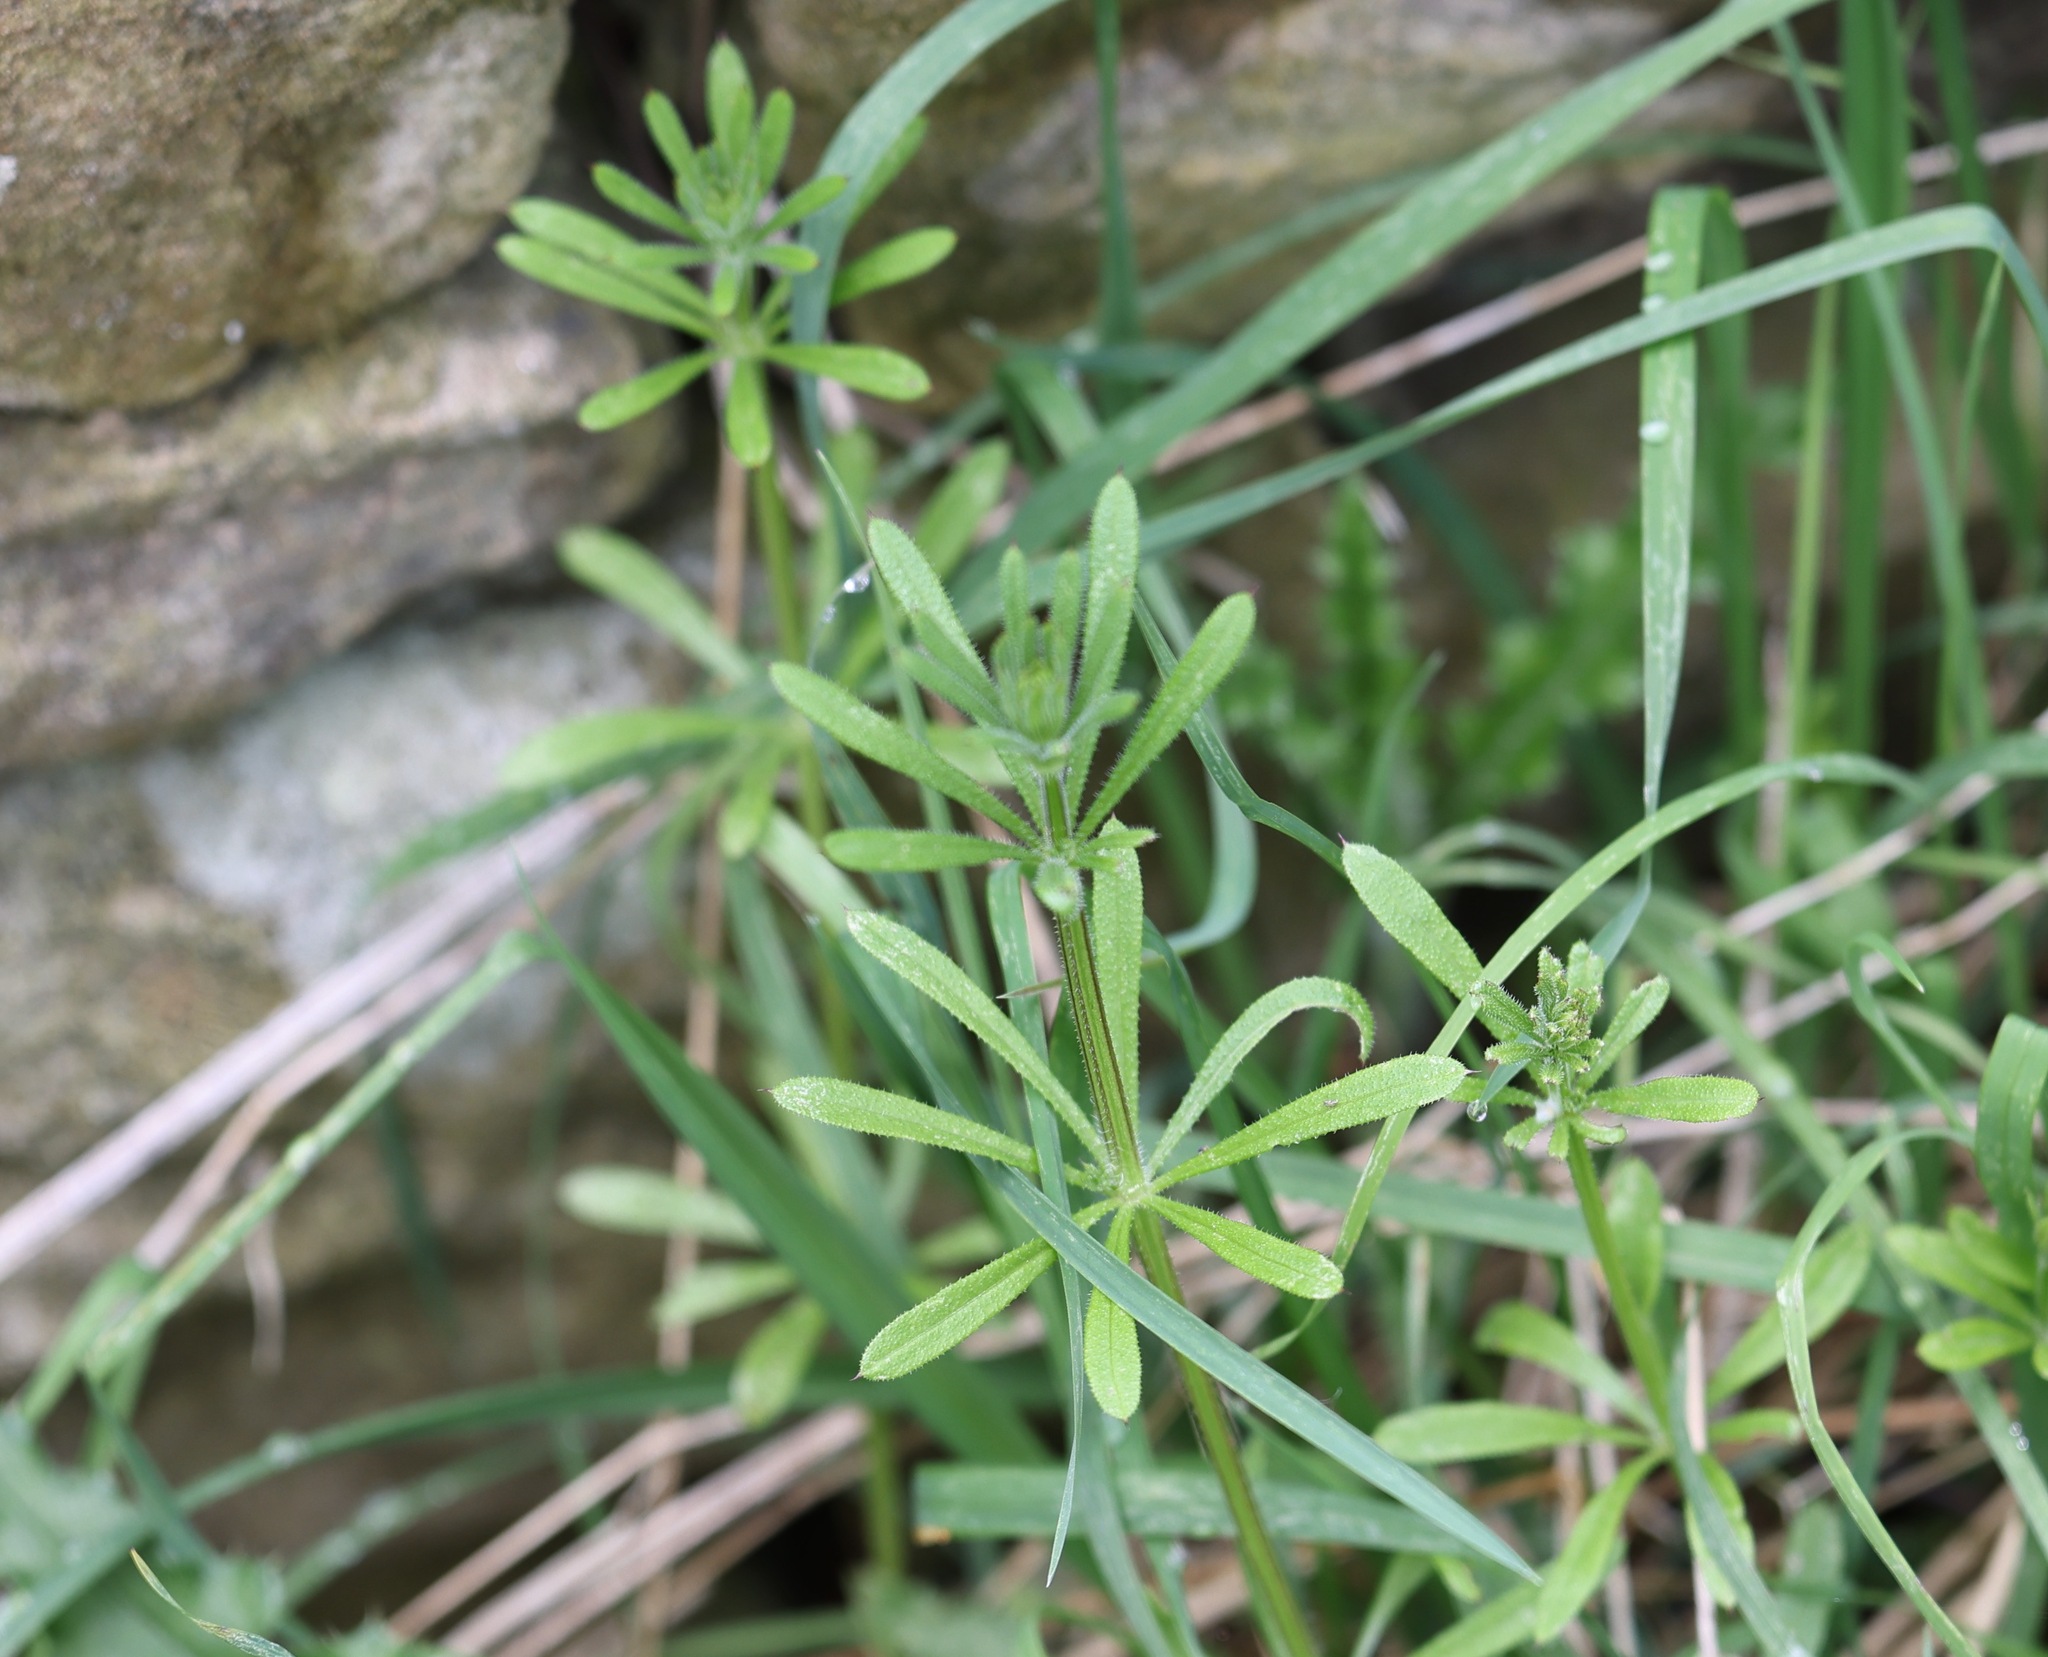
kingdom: Plantae
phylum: Tracheophyta
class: Magnoliopsida
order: Gentianales
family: Rubiaceae
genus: Galium
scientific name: Galium aparine
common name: Cleavers
